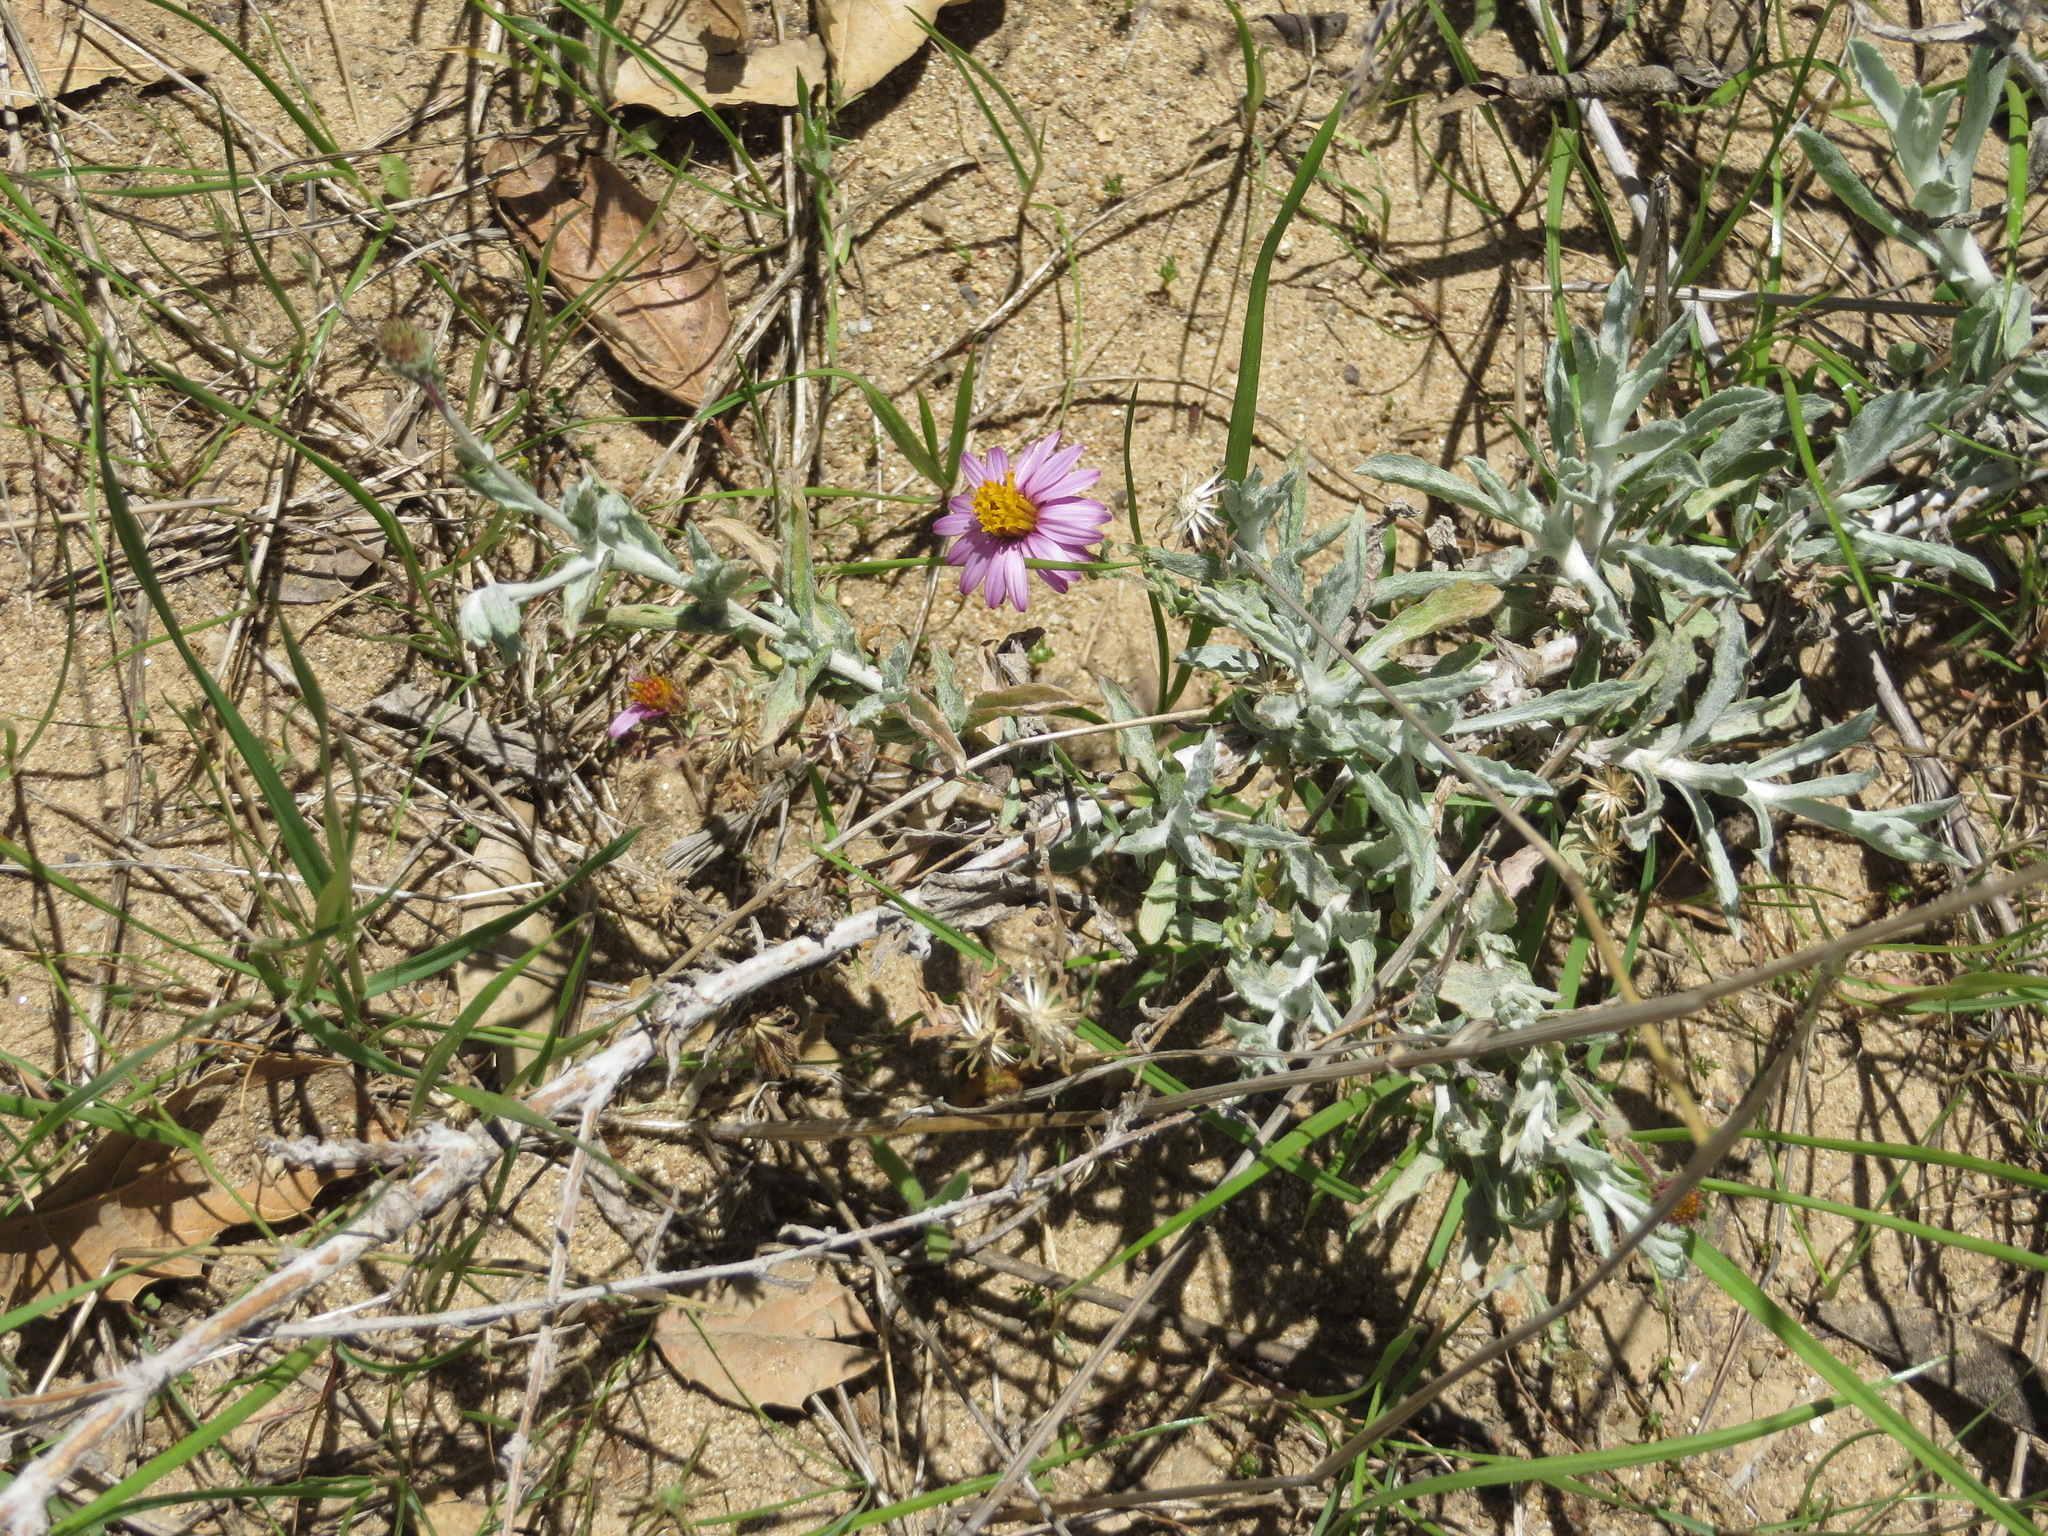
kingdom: Plantae
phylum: Tracheophyta
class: Magnoliopsida
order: Asterales
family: Asteraceae
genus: Corethrogyne
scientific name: Corethrogyne filaginifolia
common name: Sand-aster
